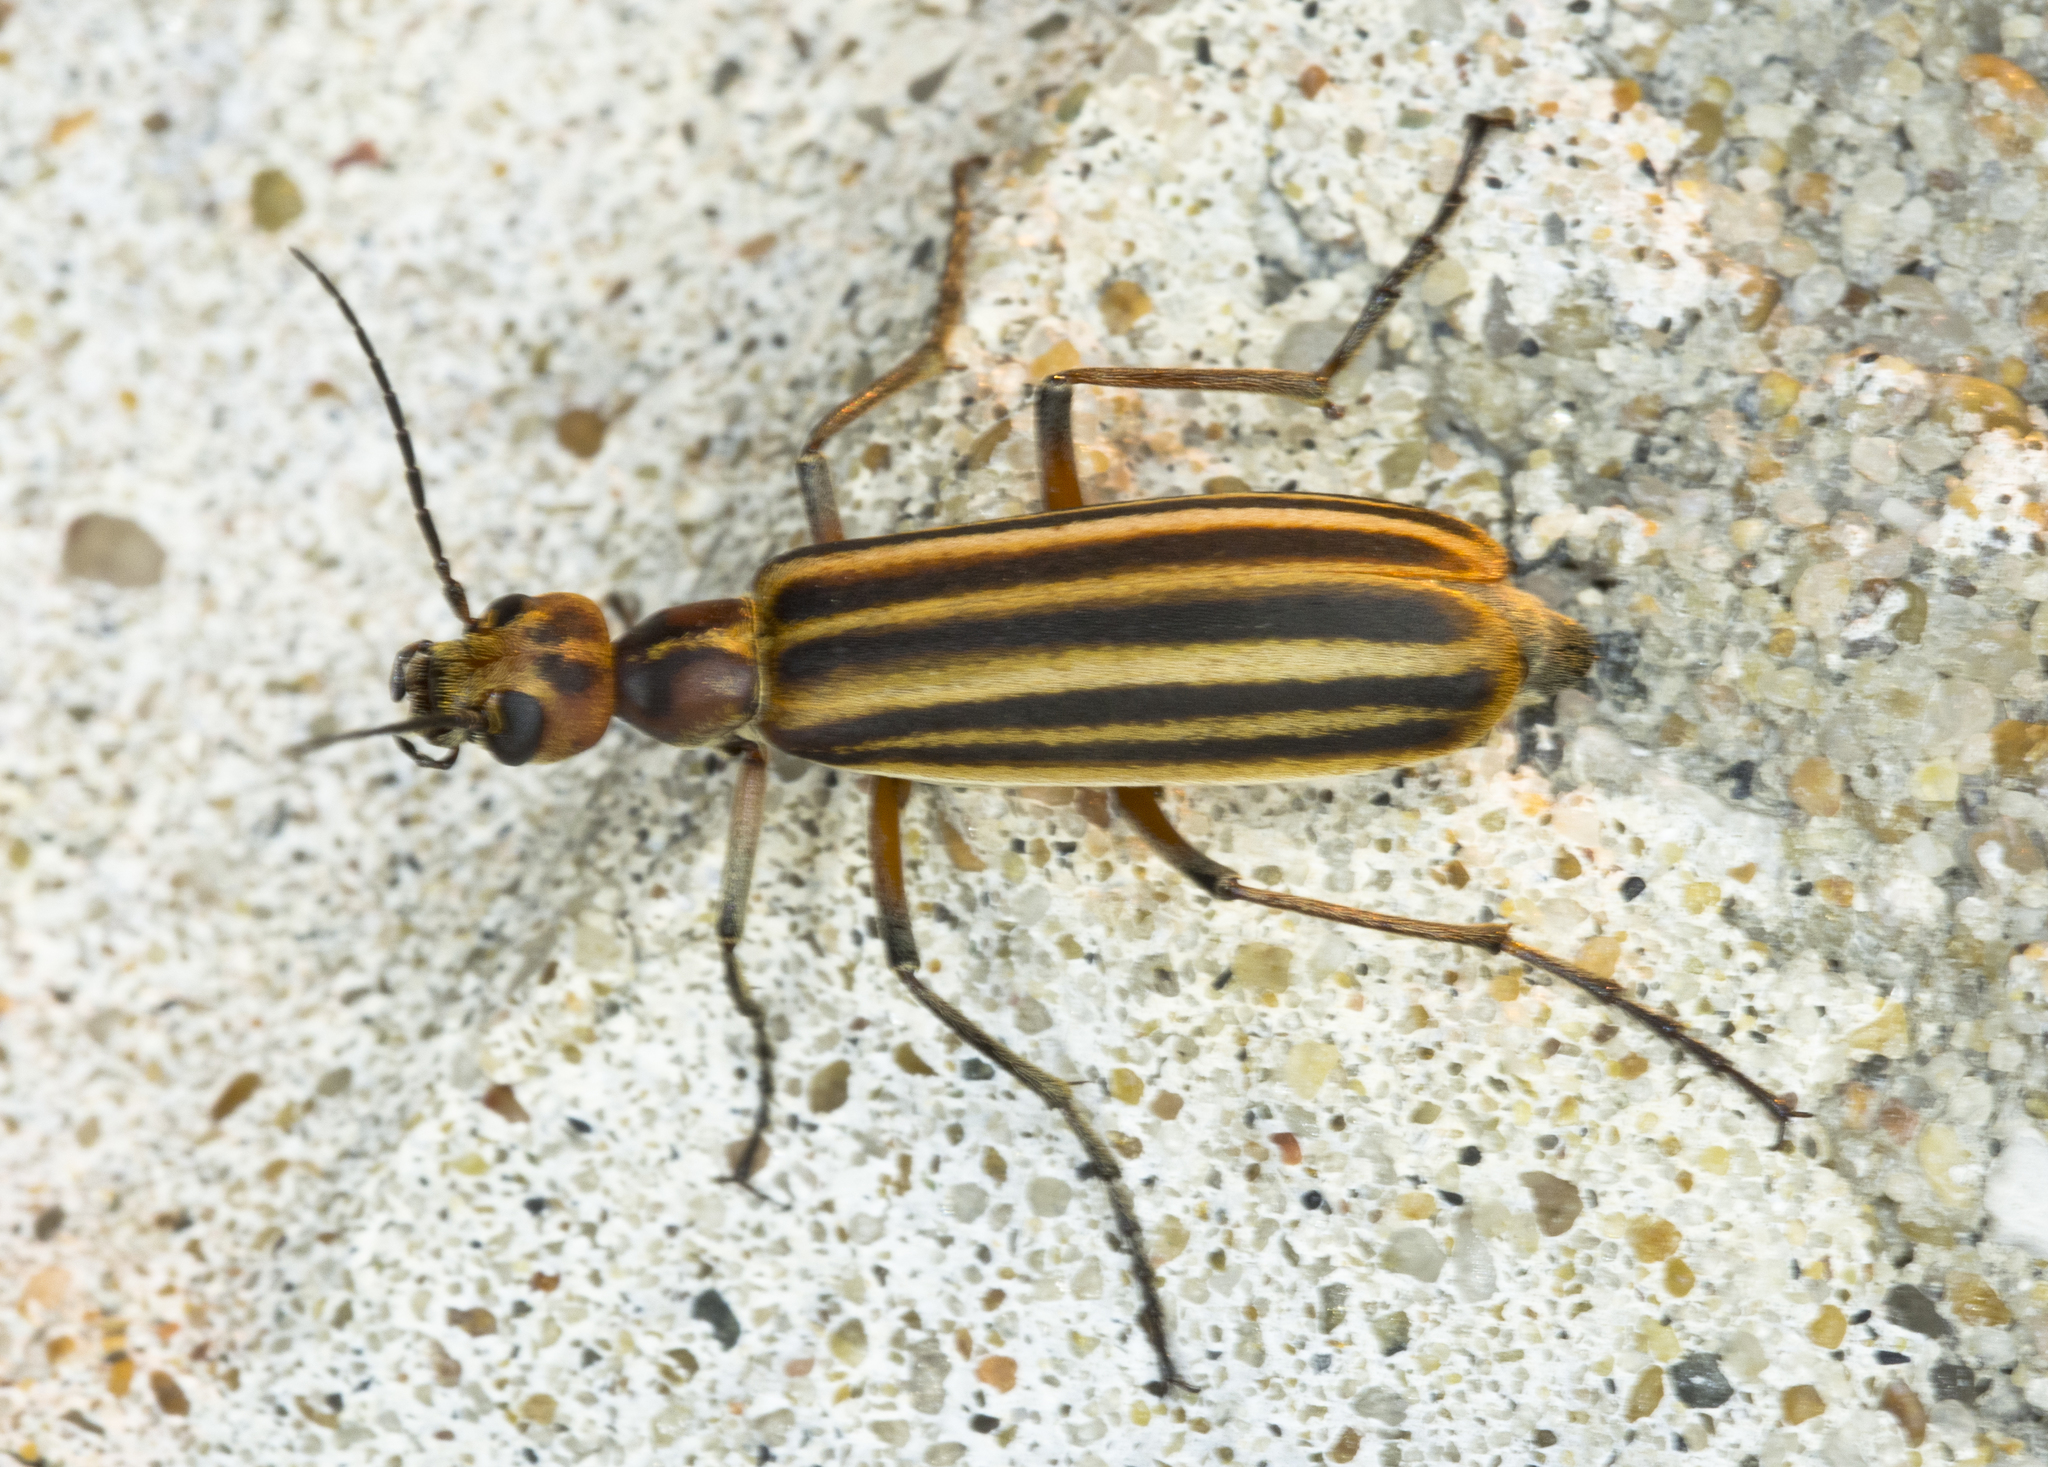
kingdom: Animalia
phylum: Arthropoda
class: Insecta
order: Coleoptera
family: Meloidae
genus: Epicauta
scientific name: Epicauta vittata
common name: Old-fashioned potato beetle
